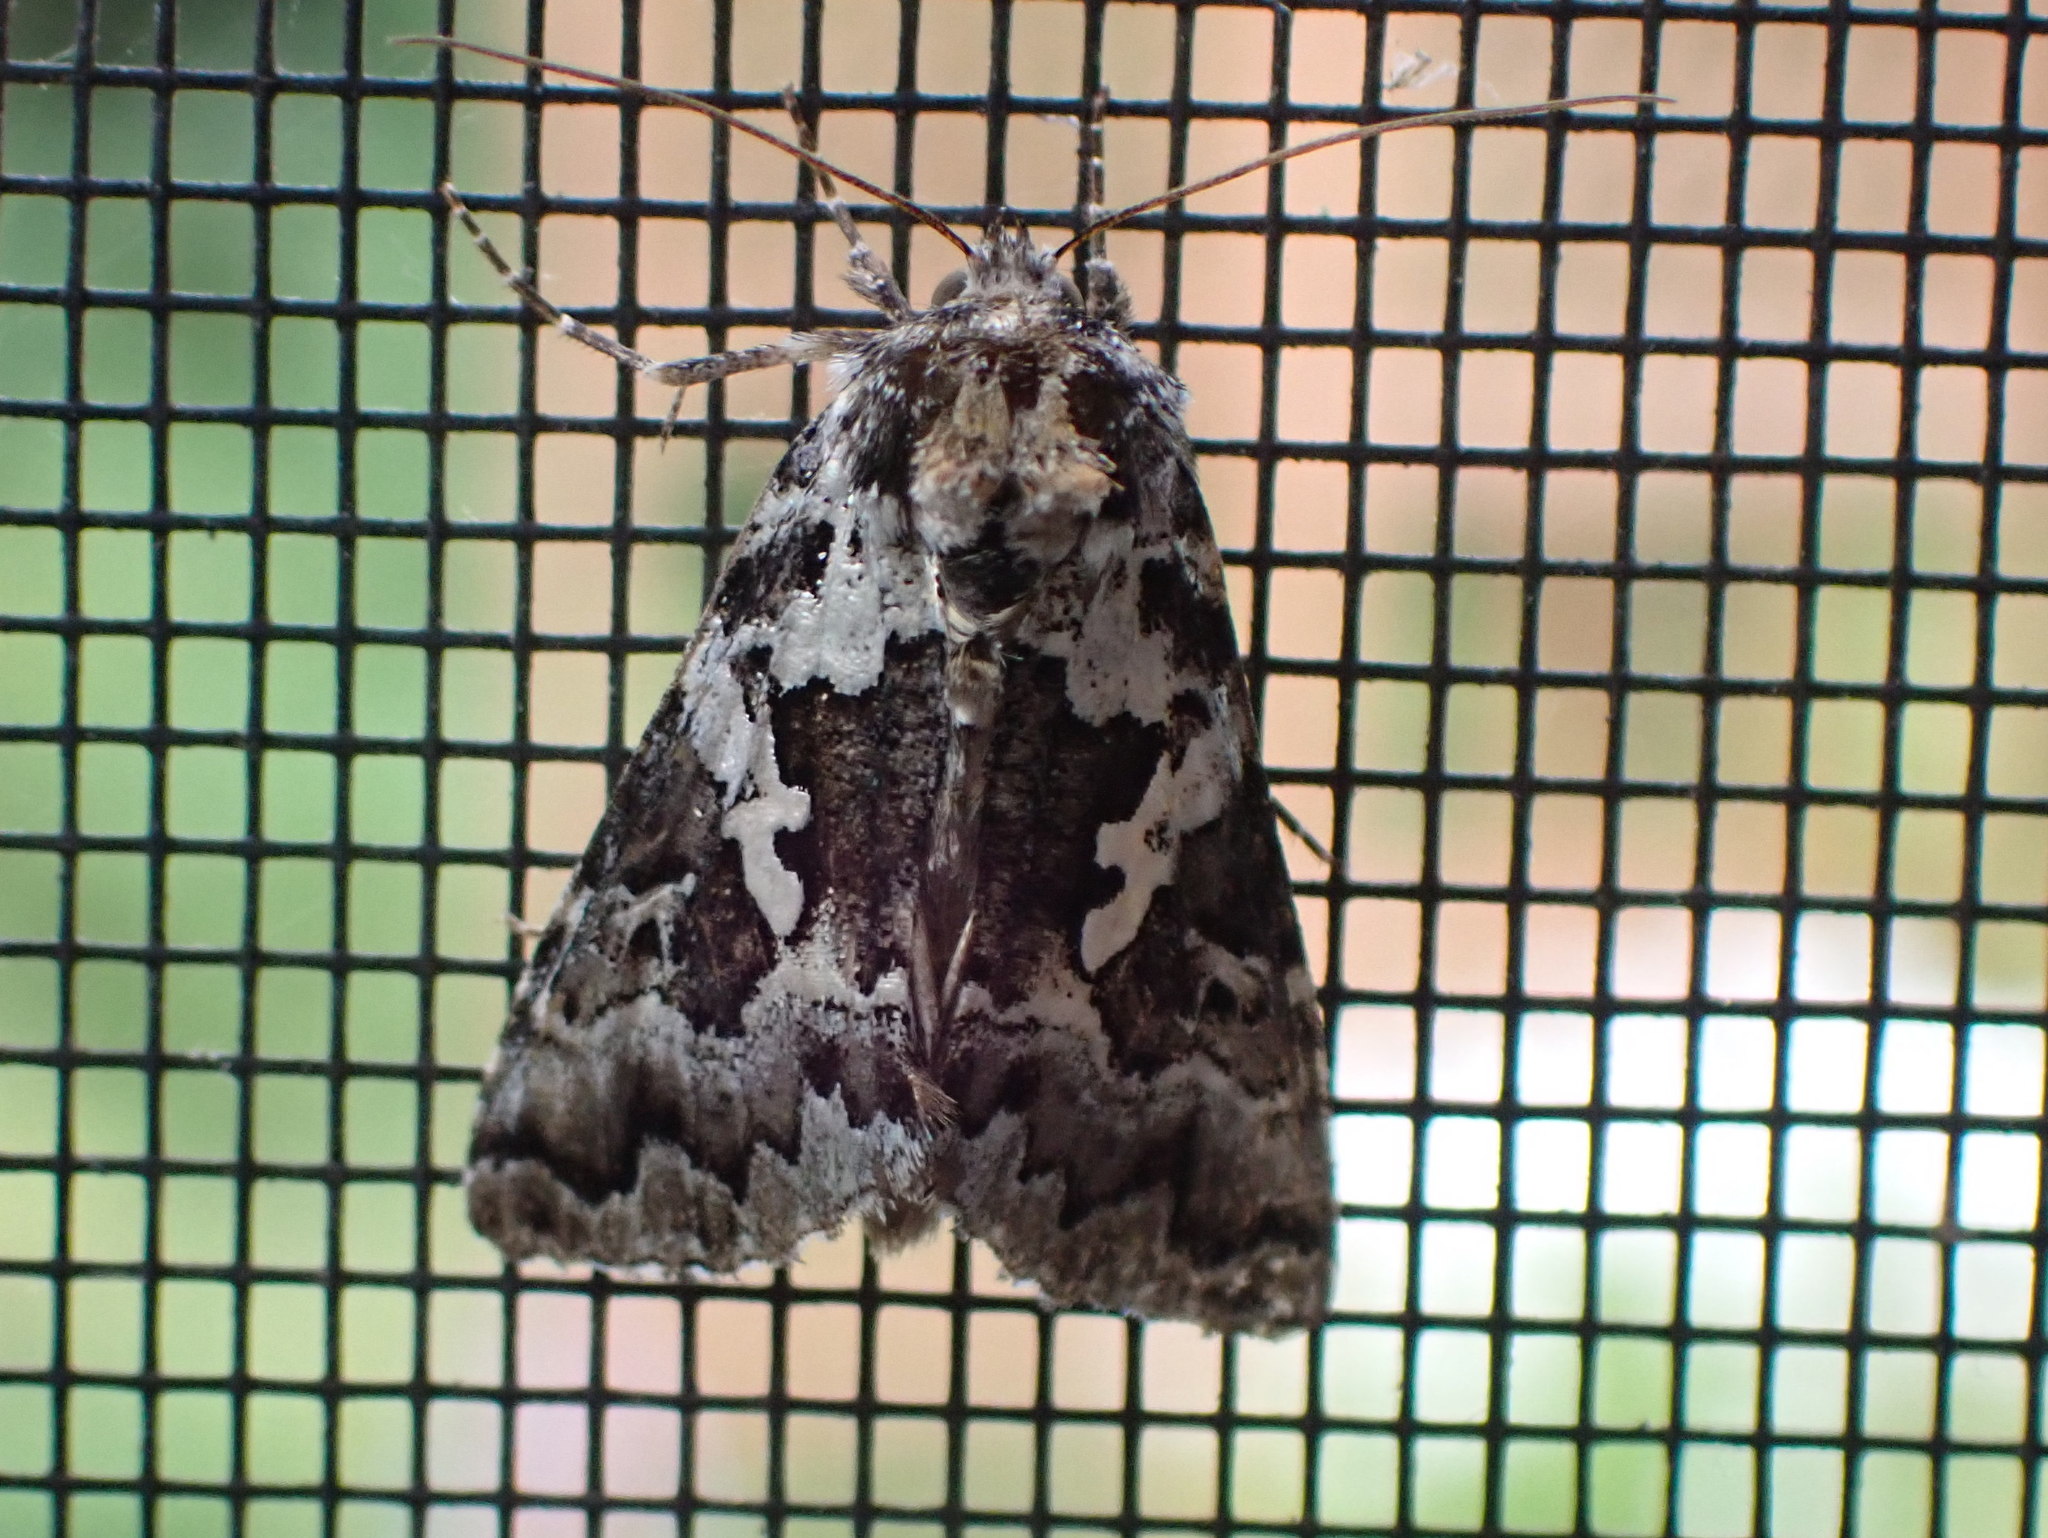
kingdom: Animalia
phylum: Arthropoda
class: Insecta
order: Lepidoptera
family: Noctuidae
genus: Syngrapha
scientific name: Syngrapha rectangula
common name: Angulated cutworm
